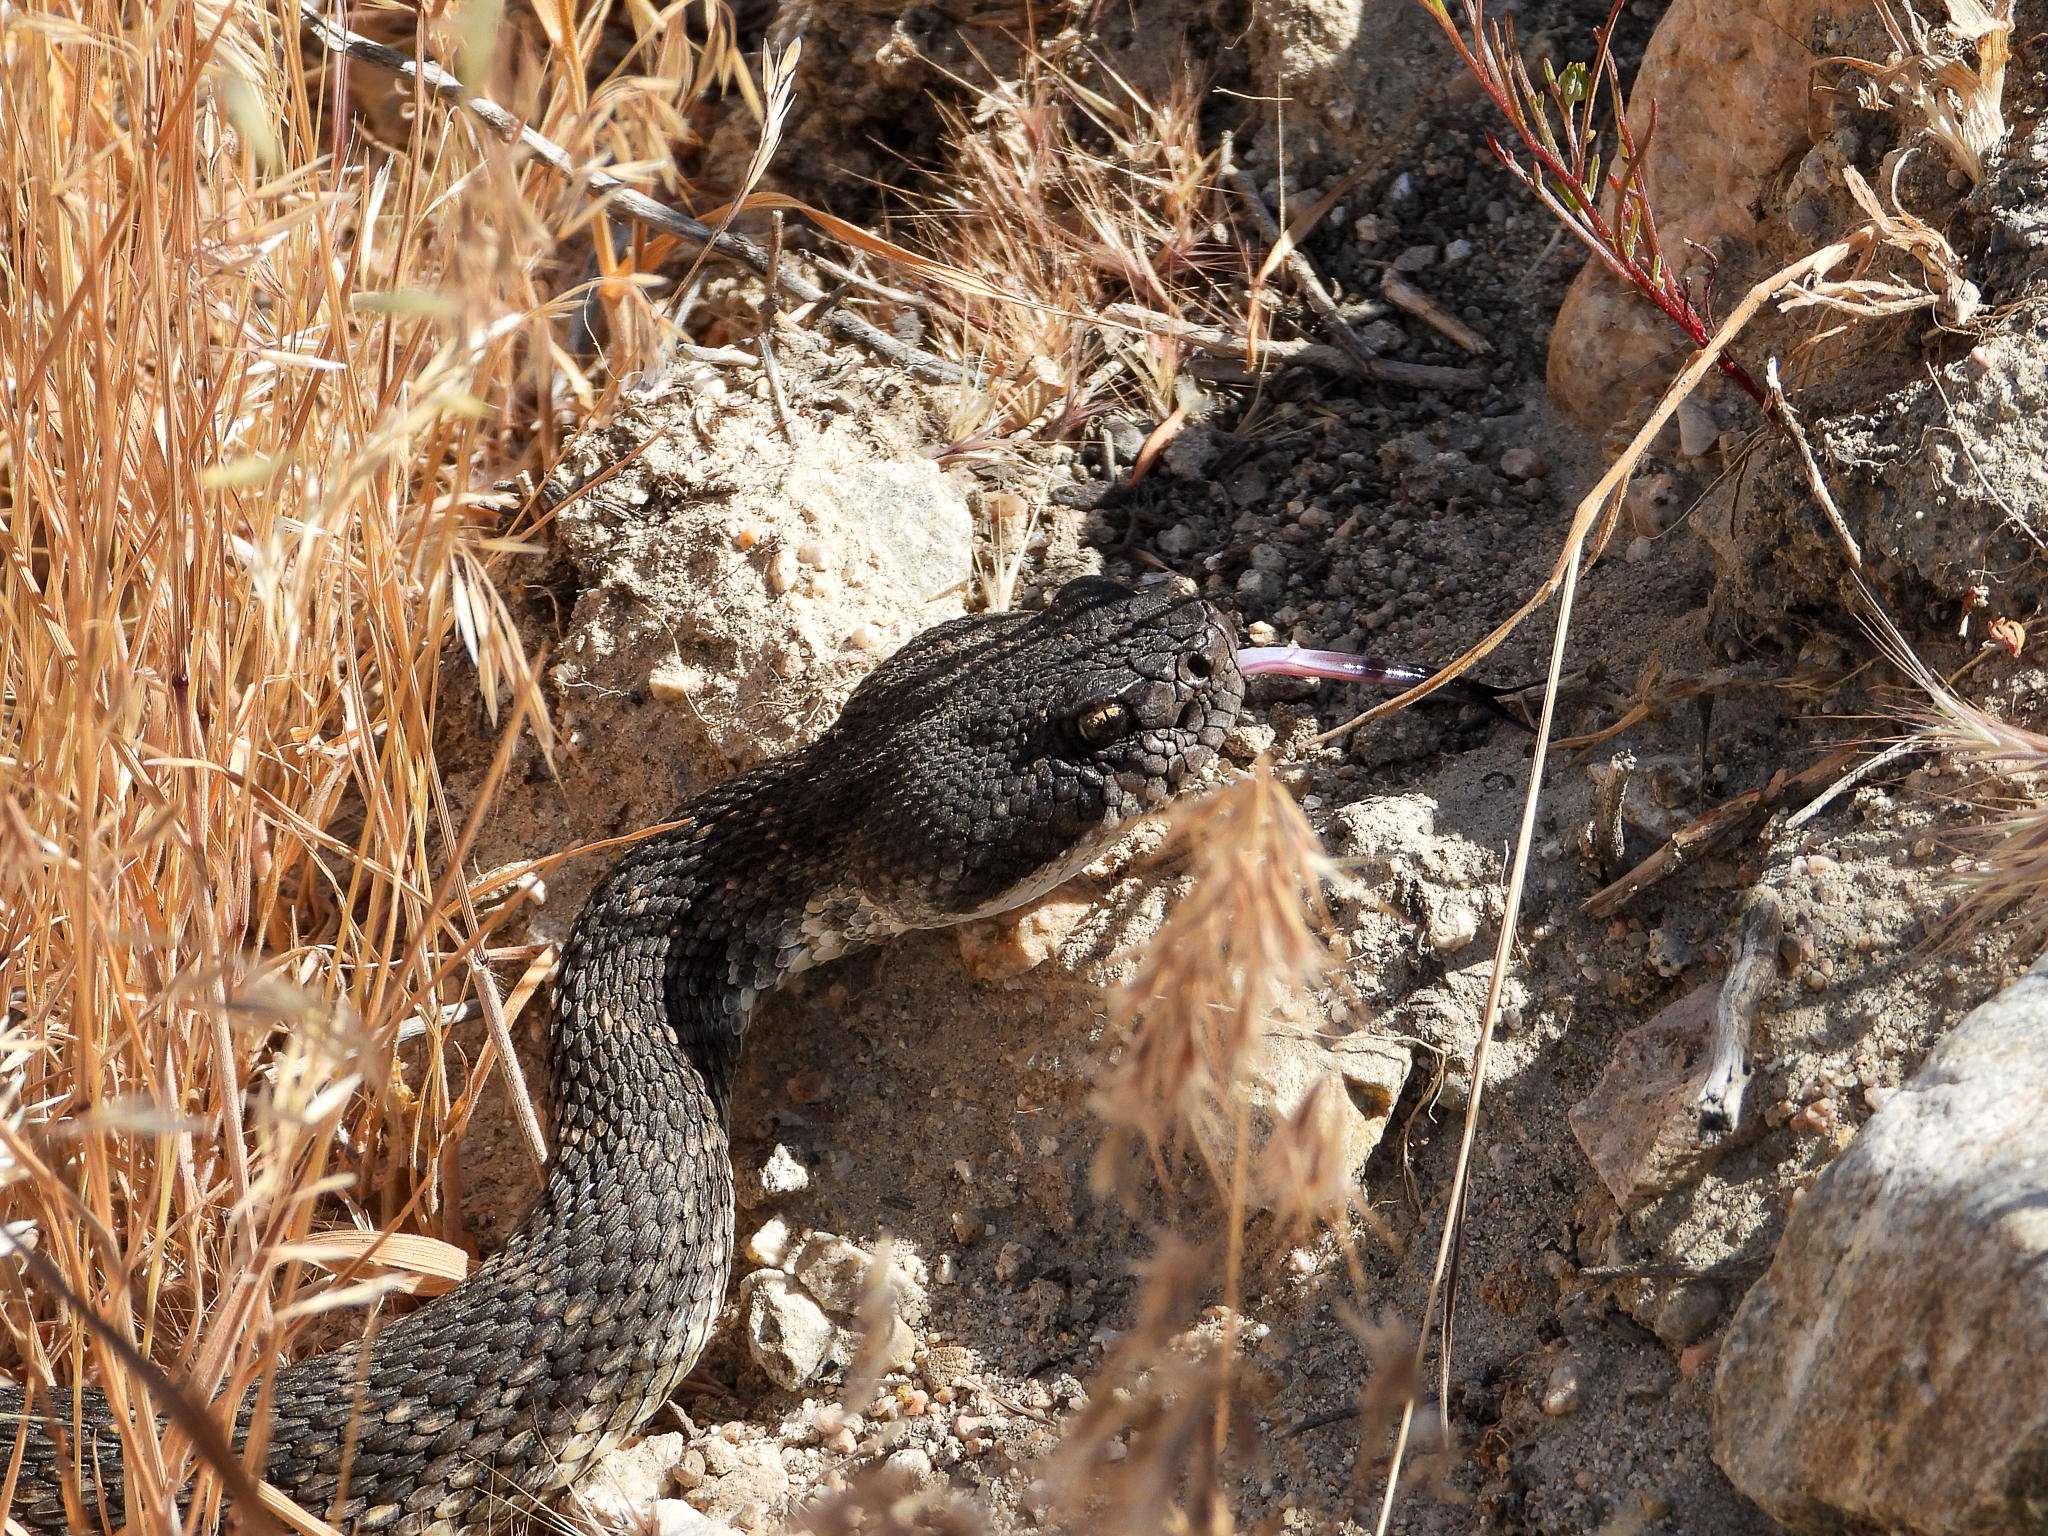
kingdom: Animalia
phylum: Chordata
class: Squamata
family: Viperidae
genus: Crotalus
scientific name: Crotalus oreganus
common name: Abyssus
